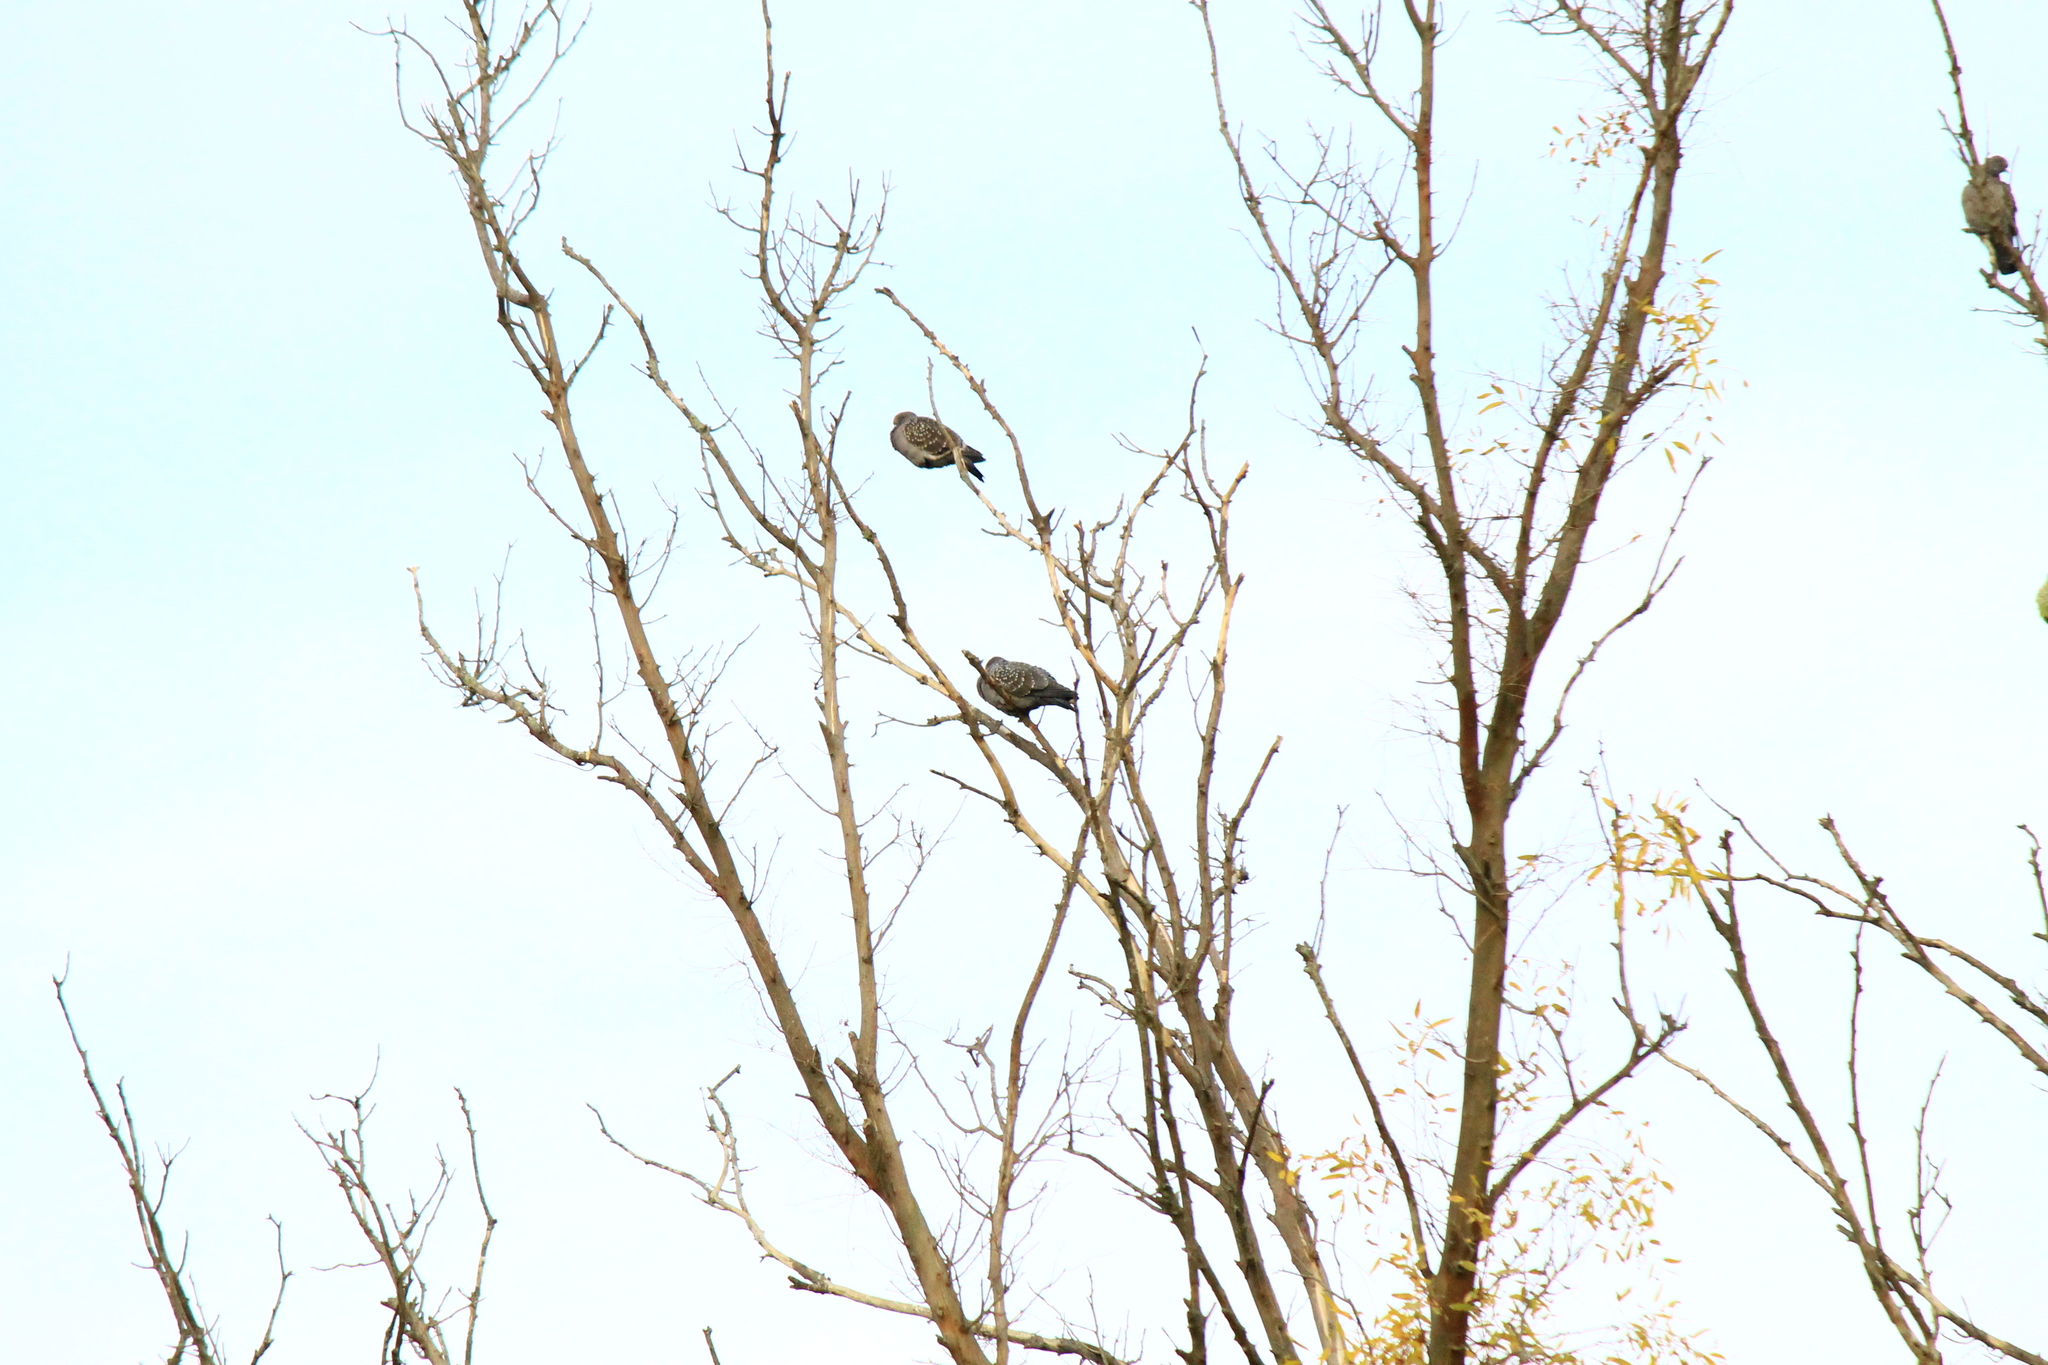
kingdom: Animalia
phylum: Chordata
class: Aves
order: Columbiformes
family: Columbidae
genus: Patagioenas
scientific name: Patagioenas maculosa
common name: Spot-winged pigeon
